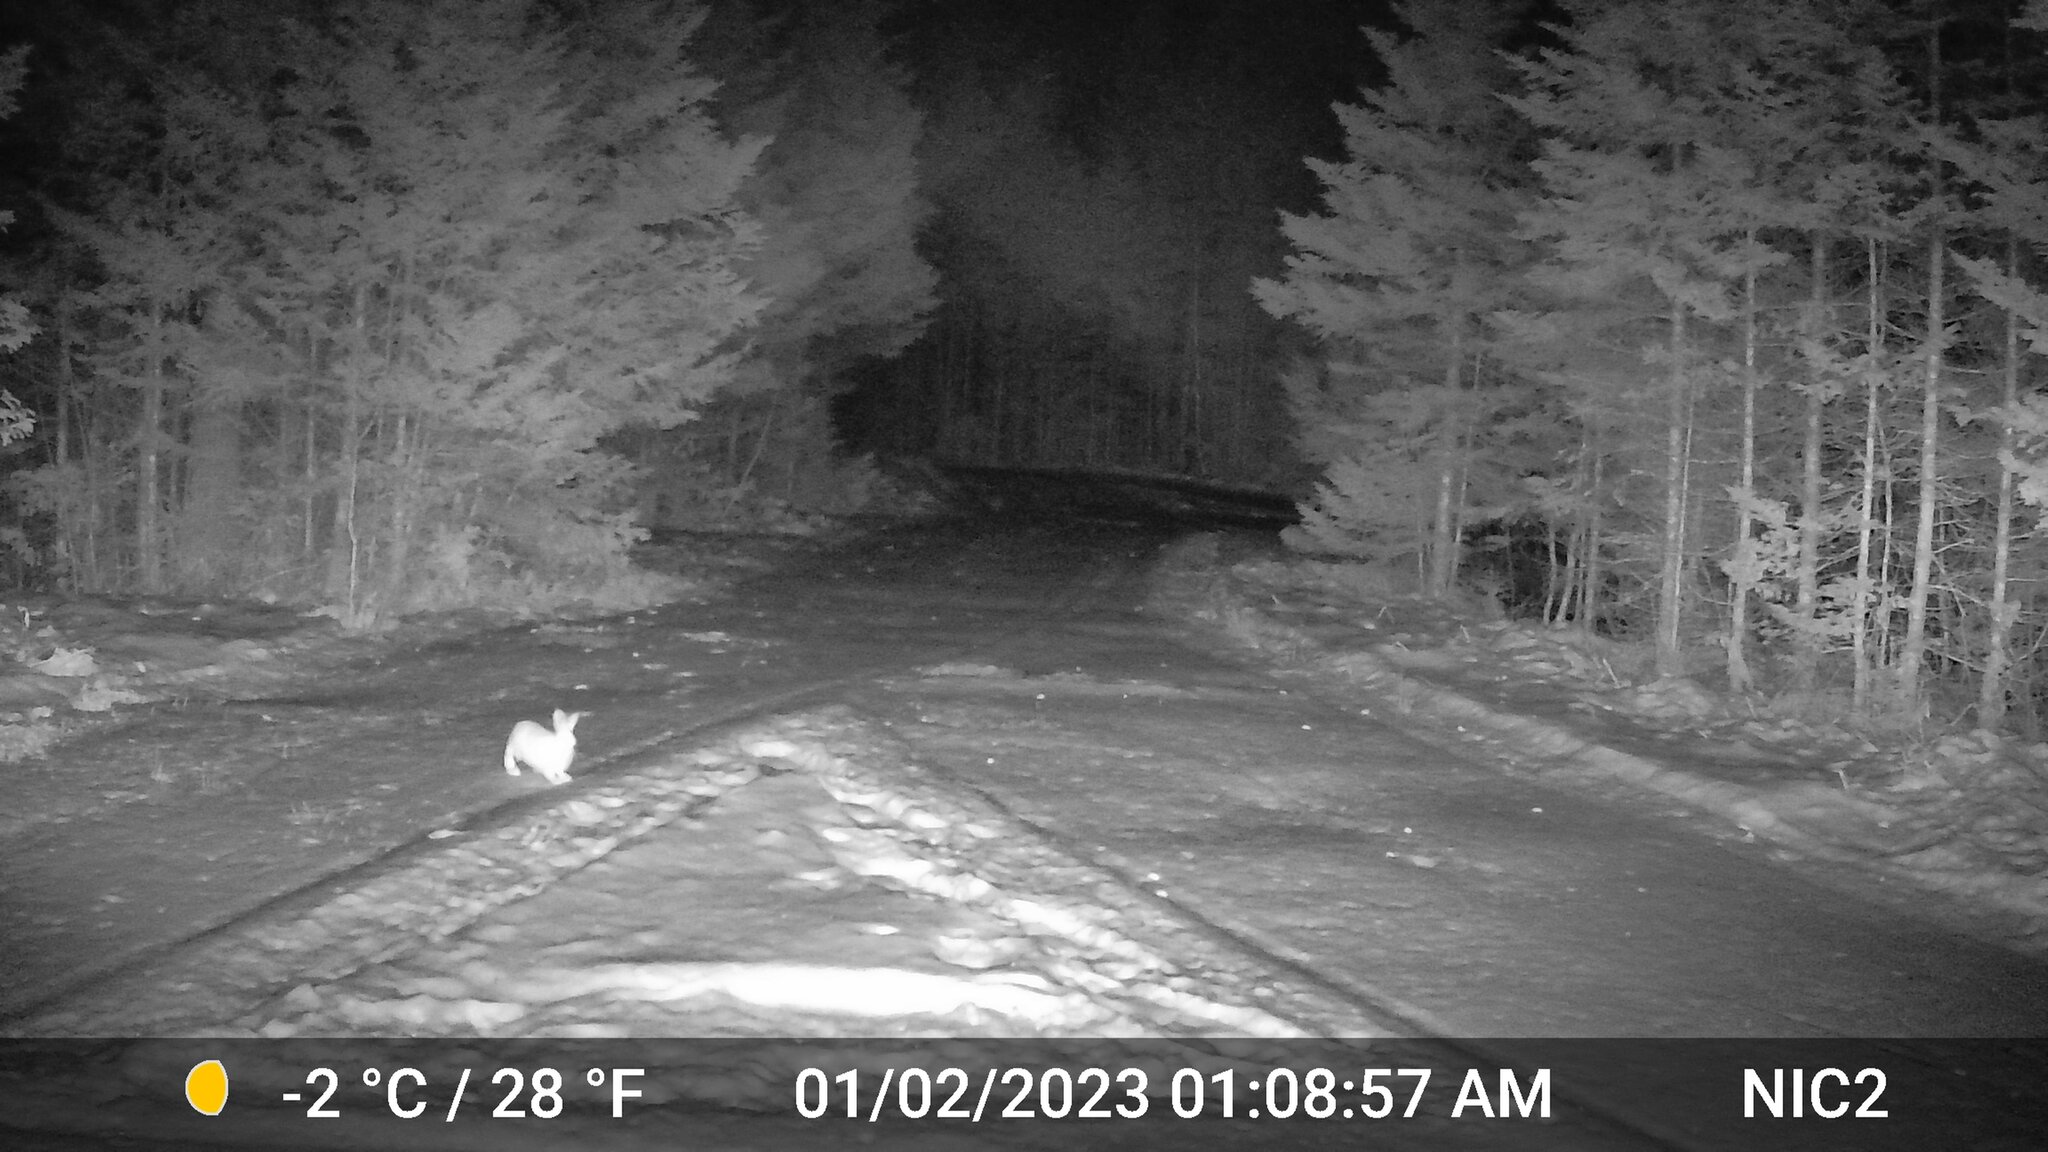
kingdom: Animalia
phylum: Chordata
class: Mammalia
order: Lagomorpha
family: Leporidae
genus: Lepus
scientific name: Lepus americanus
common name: Snowshoe hare
